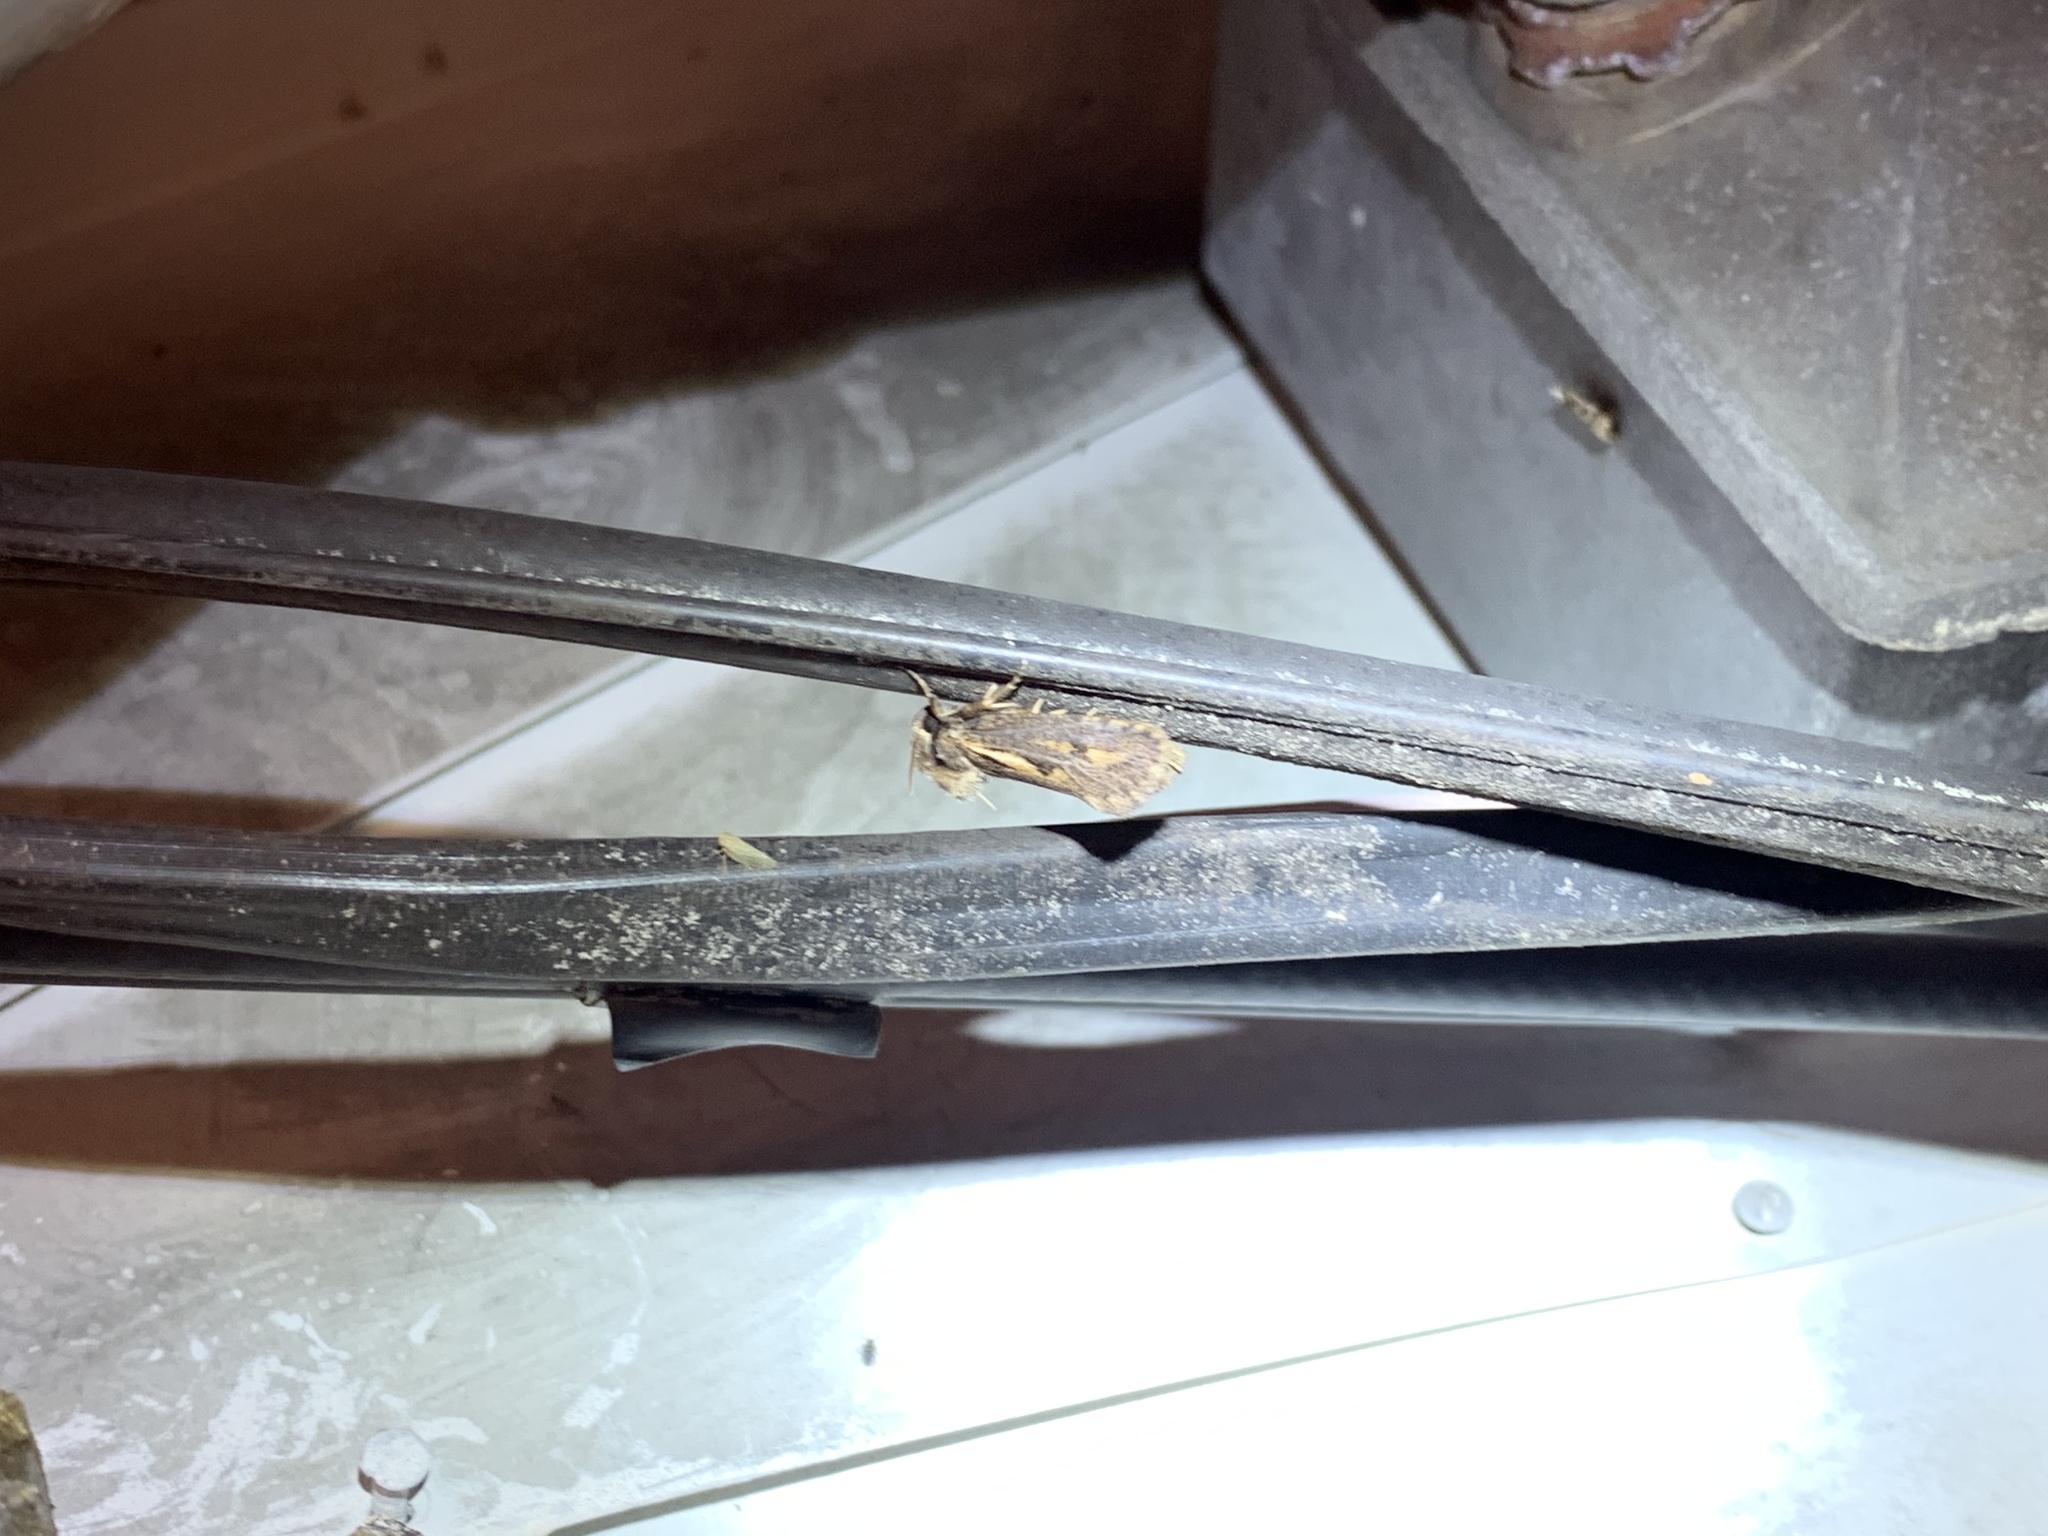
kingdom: Animalia
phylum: Arthropoda
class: Insecta
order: Lepidoptera
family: Tineidae
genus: Acrolophus
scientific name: Acrolophus popeanella
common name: Clemens' grass tubeworm moth
